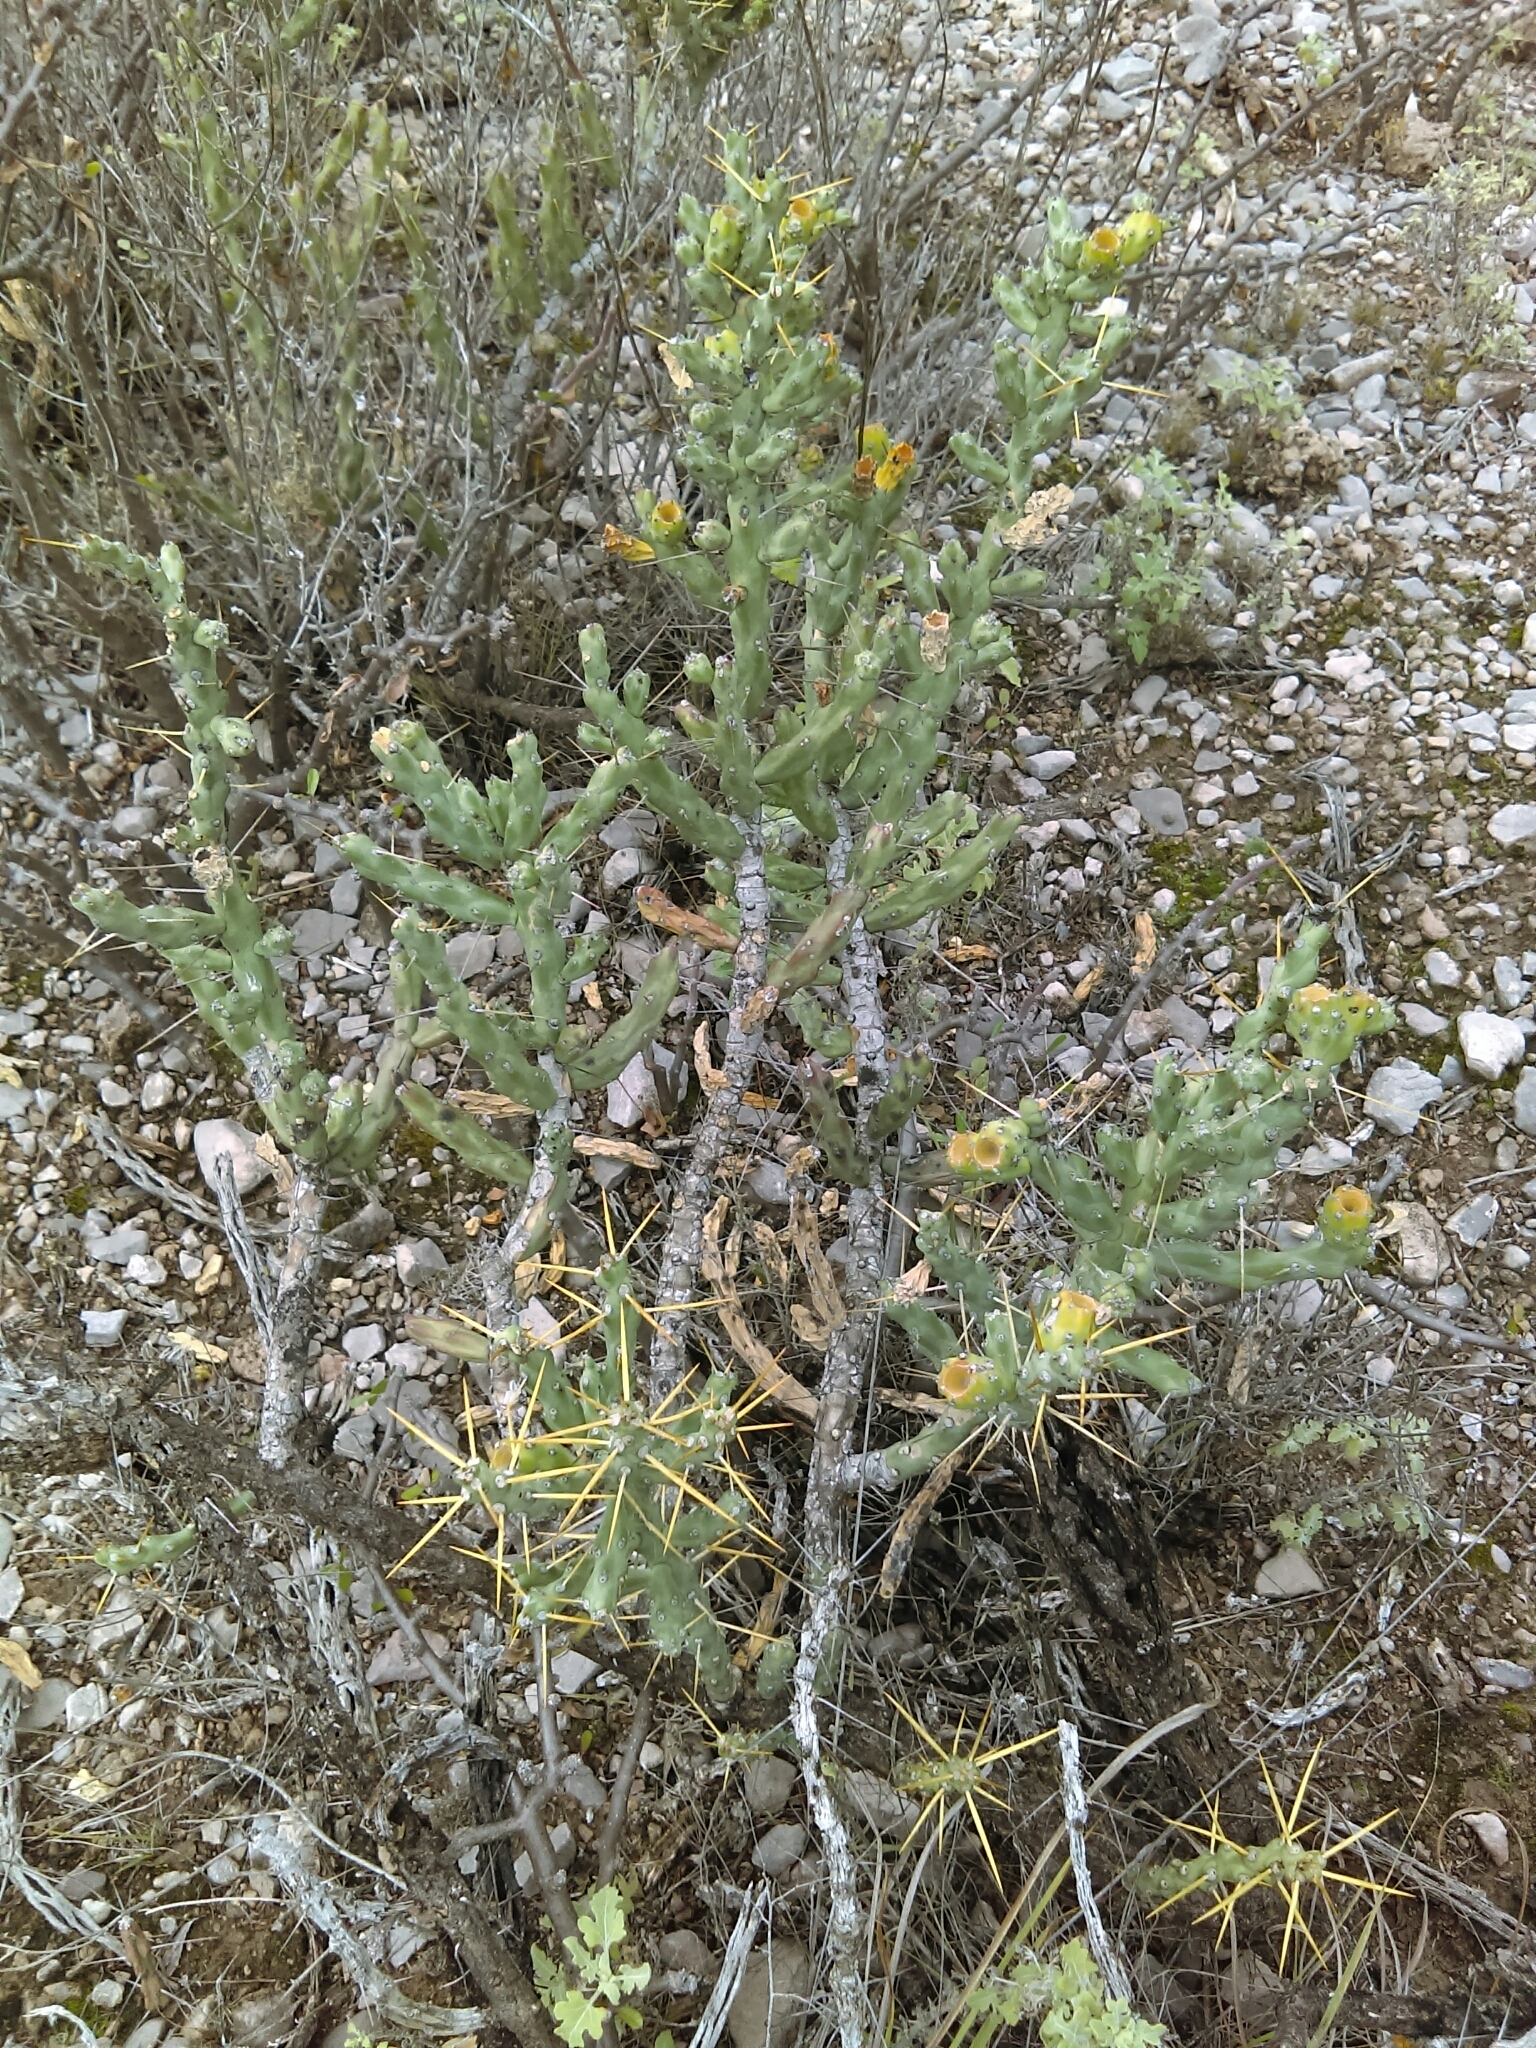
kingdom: Plantae
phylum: Tracheophyta
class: Magnoliopsida
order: Caryophyllales
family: Cactaceae
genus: Cylindropuntia
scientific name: Cylindropuntia kleiniae
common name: Klein's cholla
